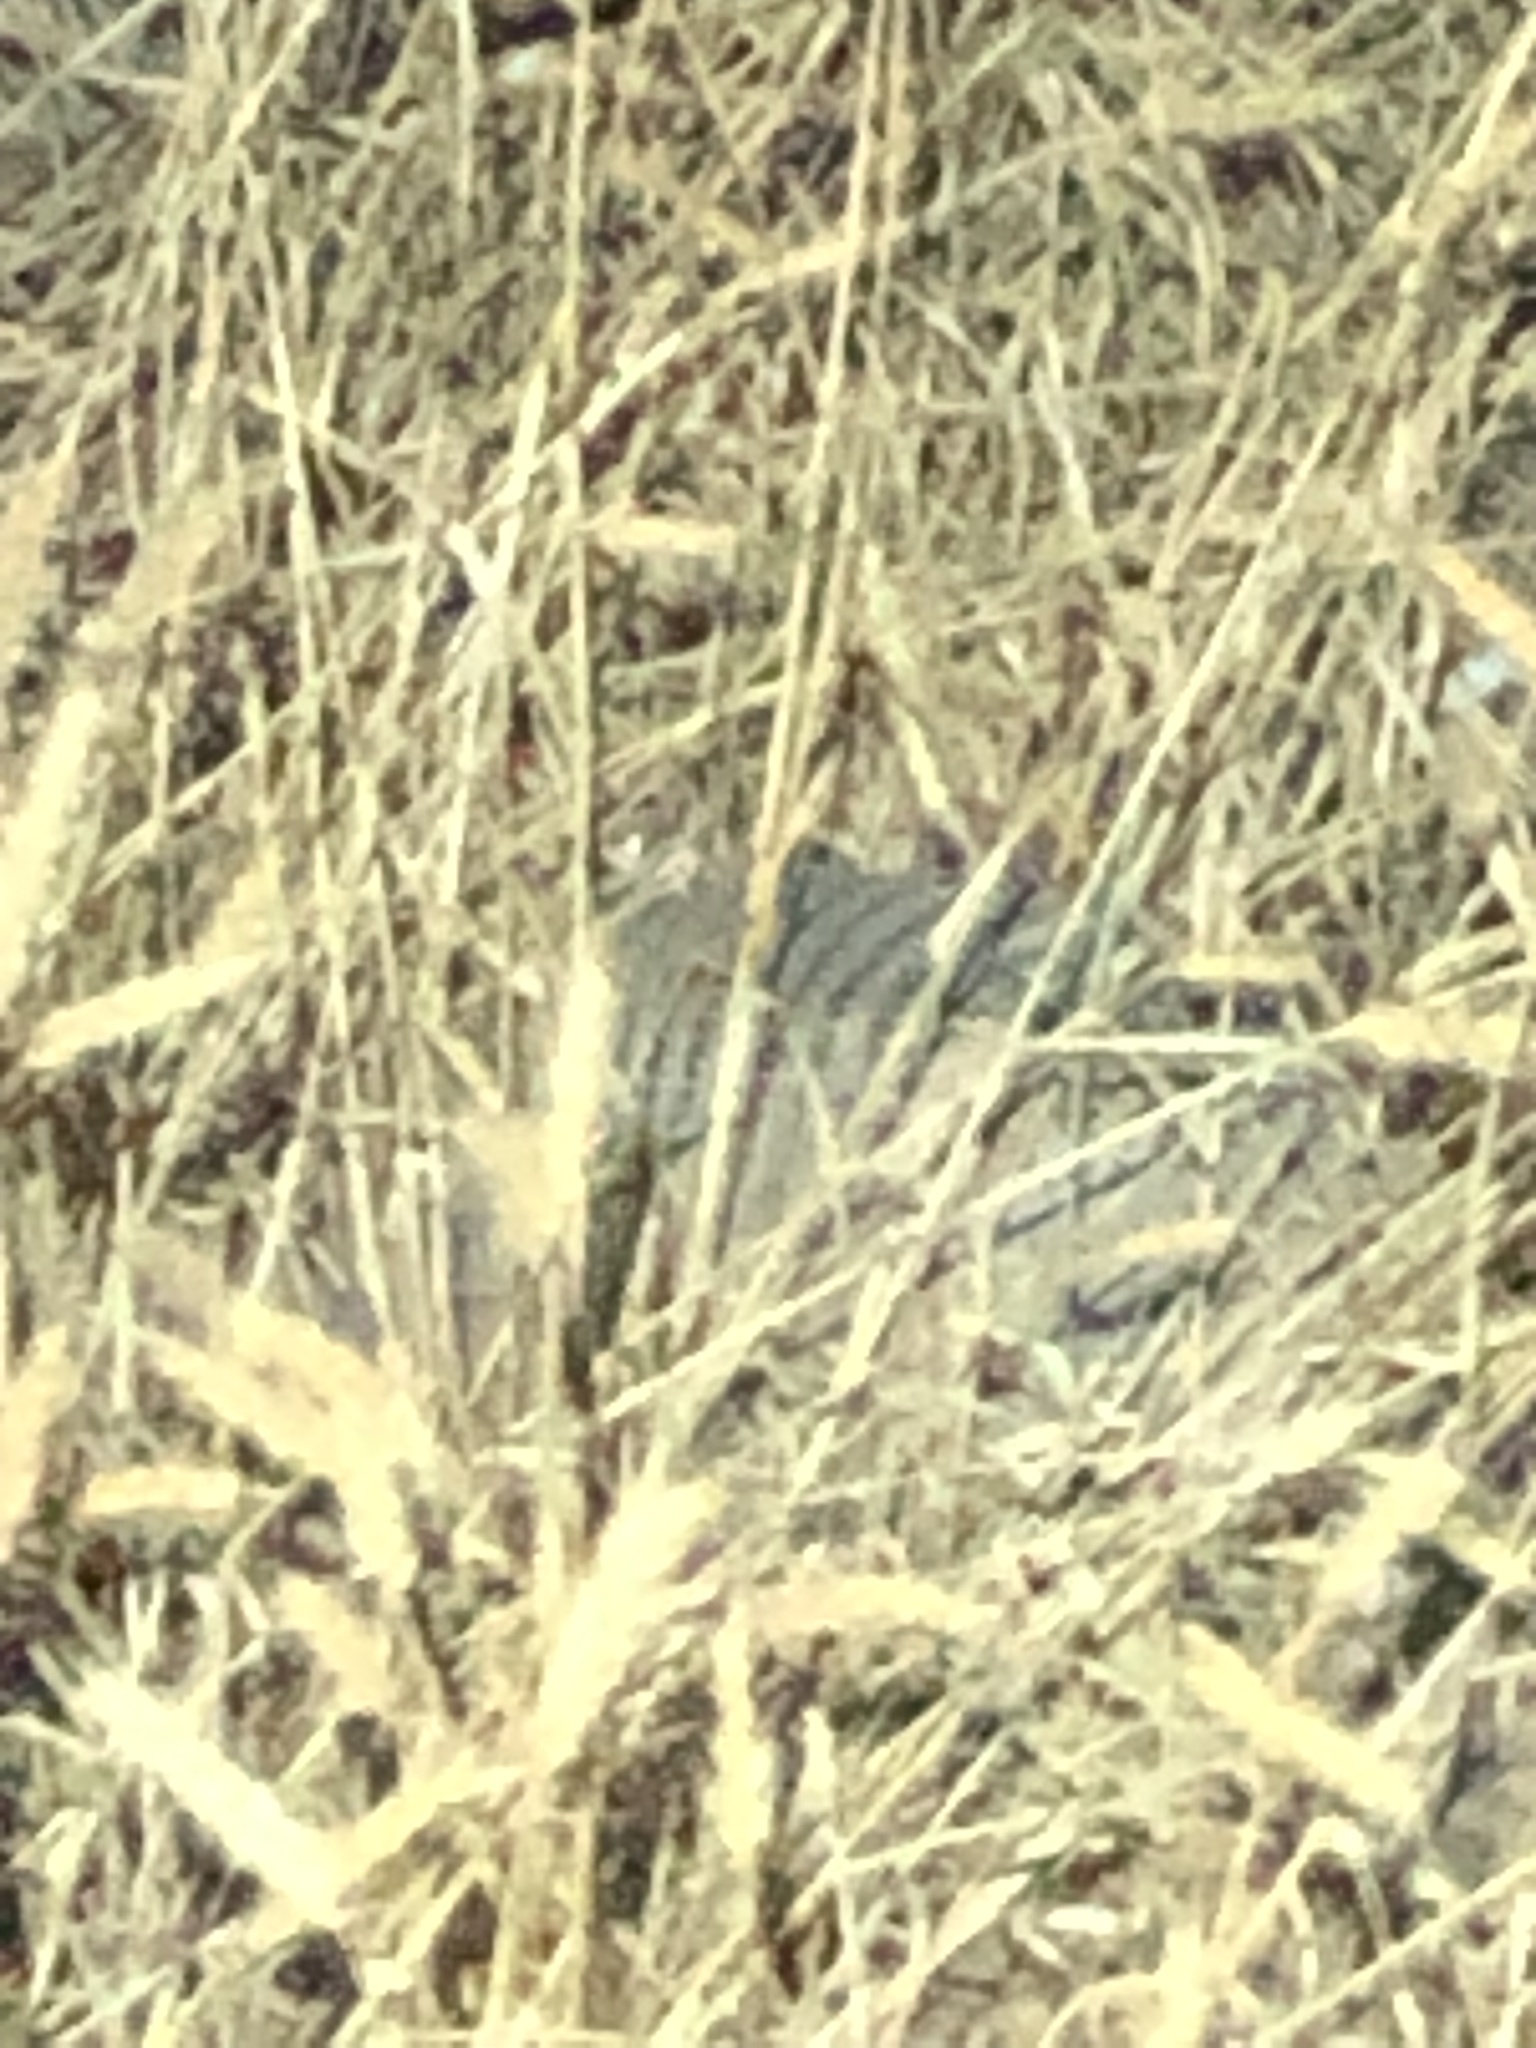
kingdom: Animalia
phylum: Chordata
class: Mammalia
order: Cingulata
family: Dasypodidae
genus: Dasypus
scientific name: Dasypus novemcinctus
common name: Nine-banded armadillo
